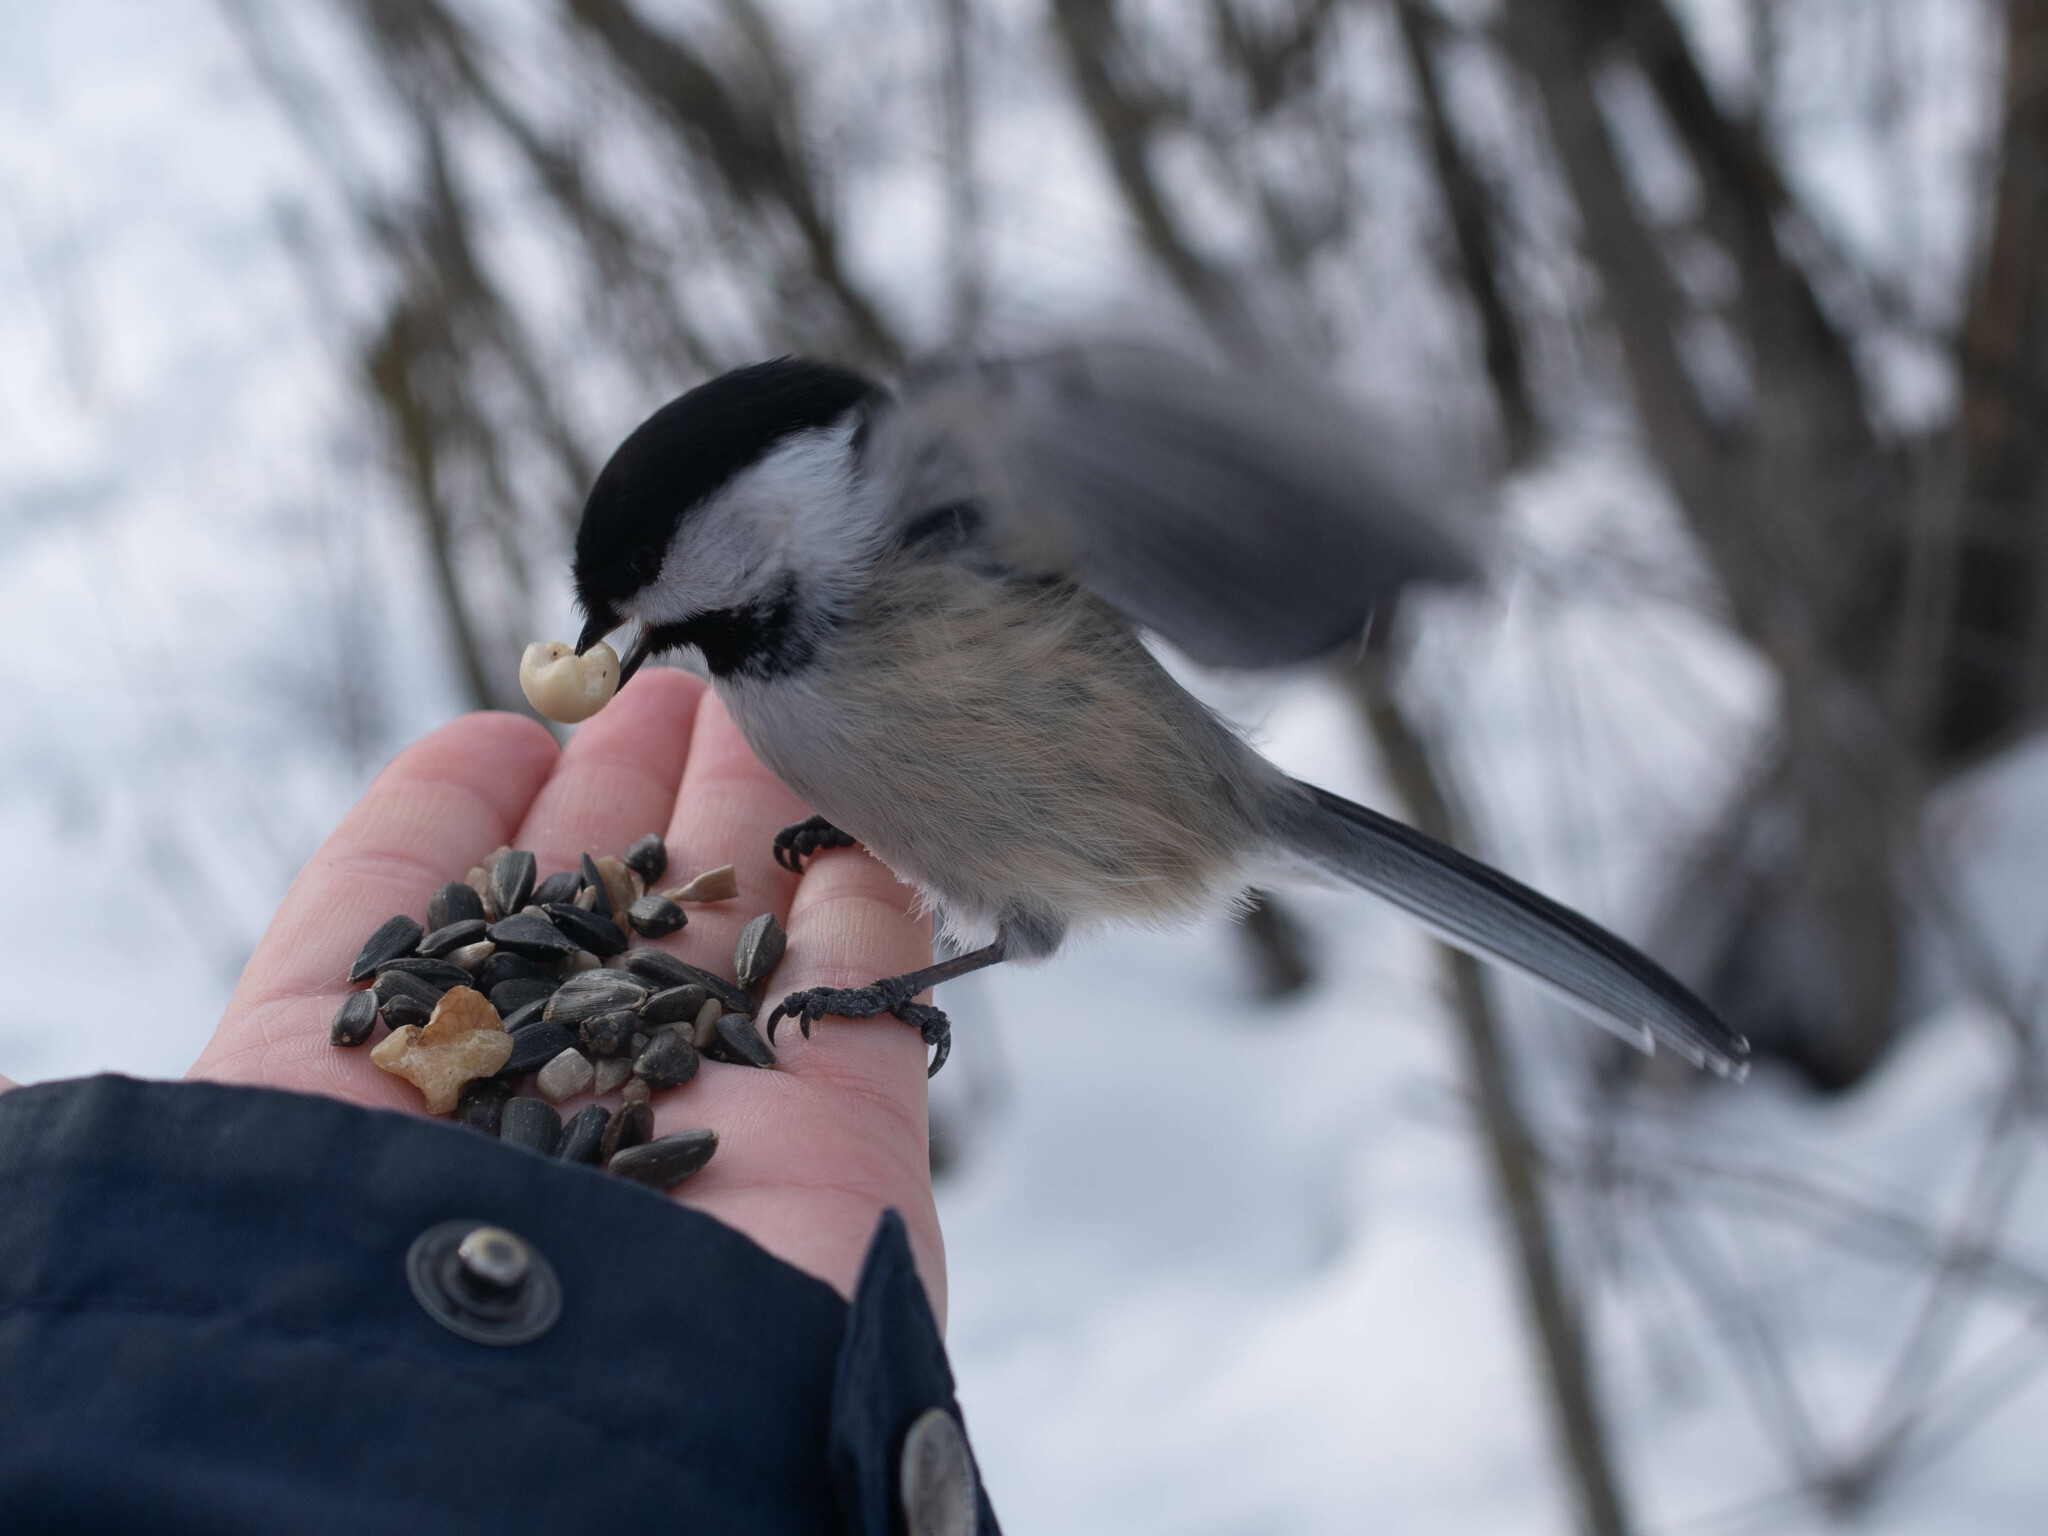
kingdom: Animalia
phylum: Chordata
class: Aves
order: Passeriformes
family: Paridae
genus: Poecile
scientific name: Poecile atricapillus
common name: Black-capped chickadee
